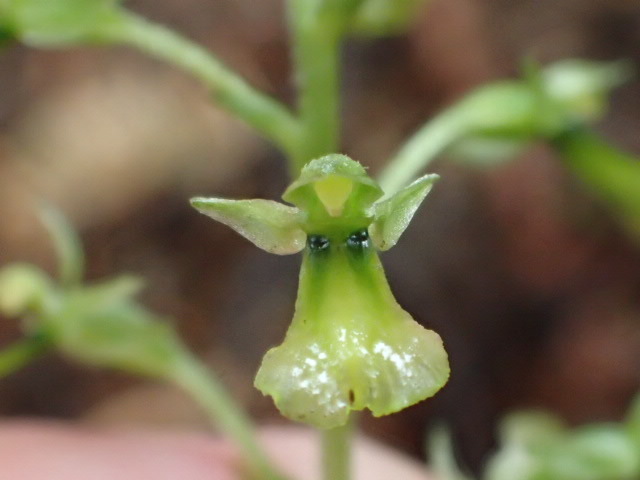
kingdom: Plantae
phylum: Tracheophyta
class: Liliopsida
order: Asparagales
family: Orchidaceae
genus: Neottia
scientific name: Neottia banksiana
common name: Northwestern twayblade
